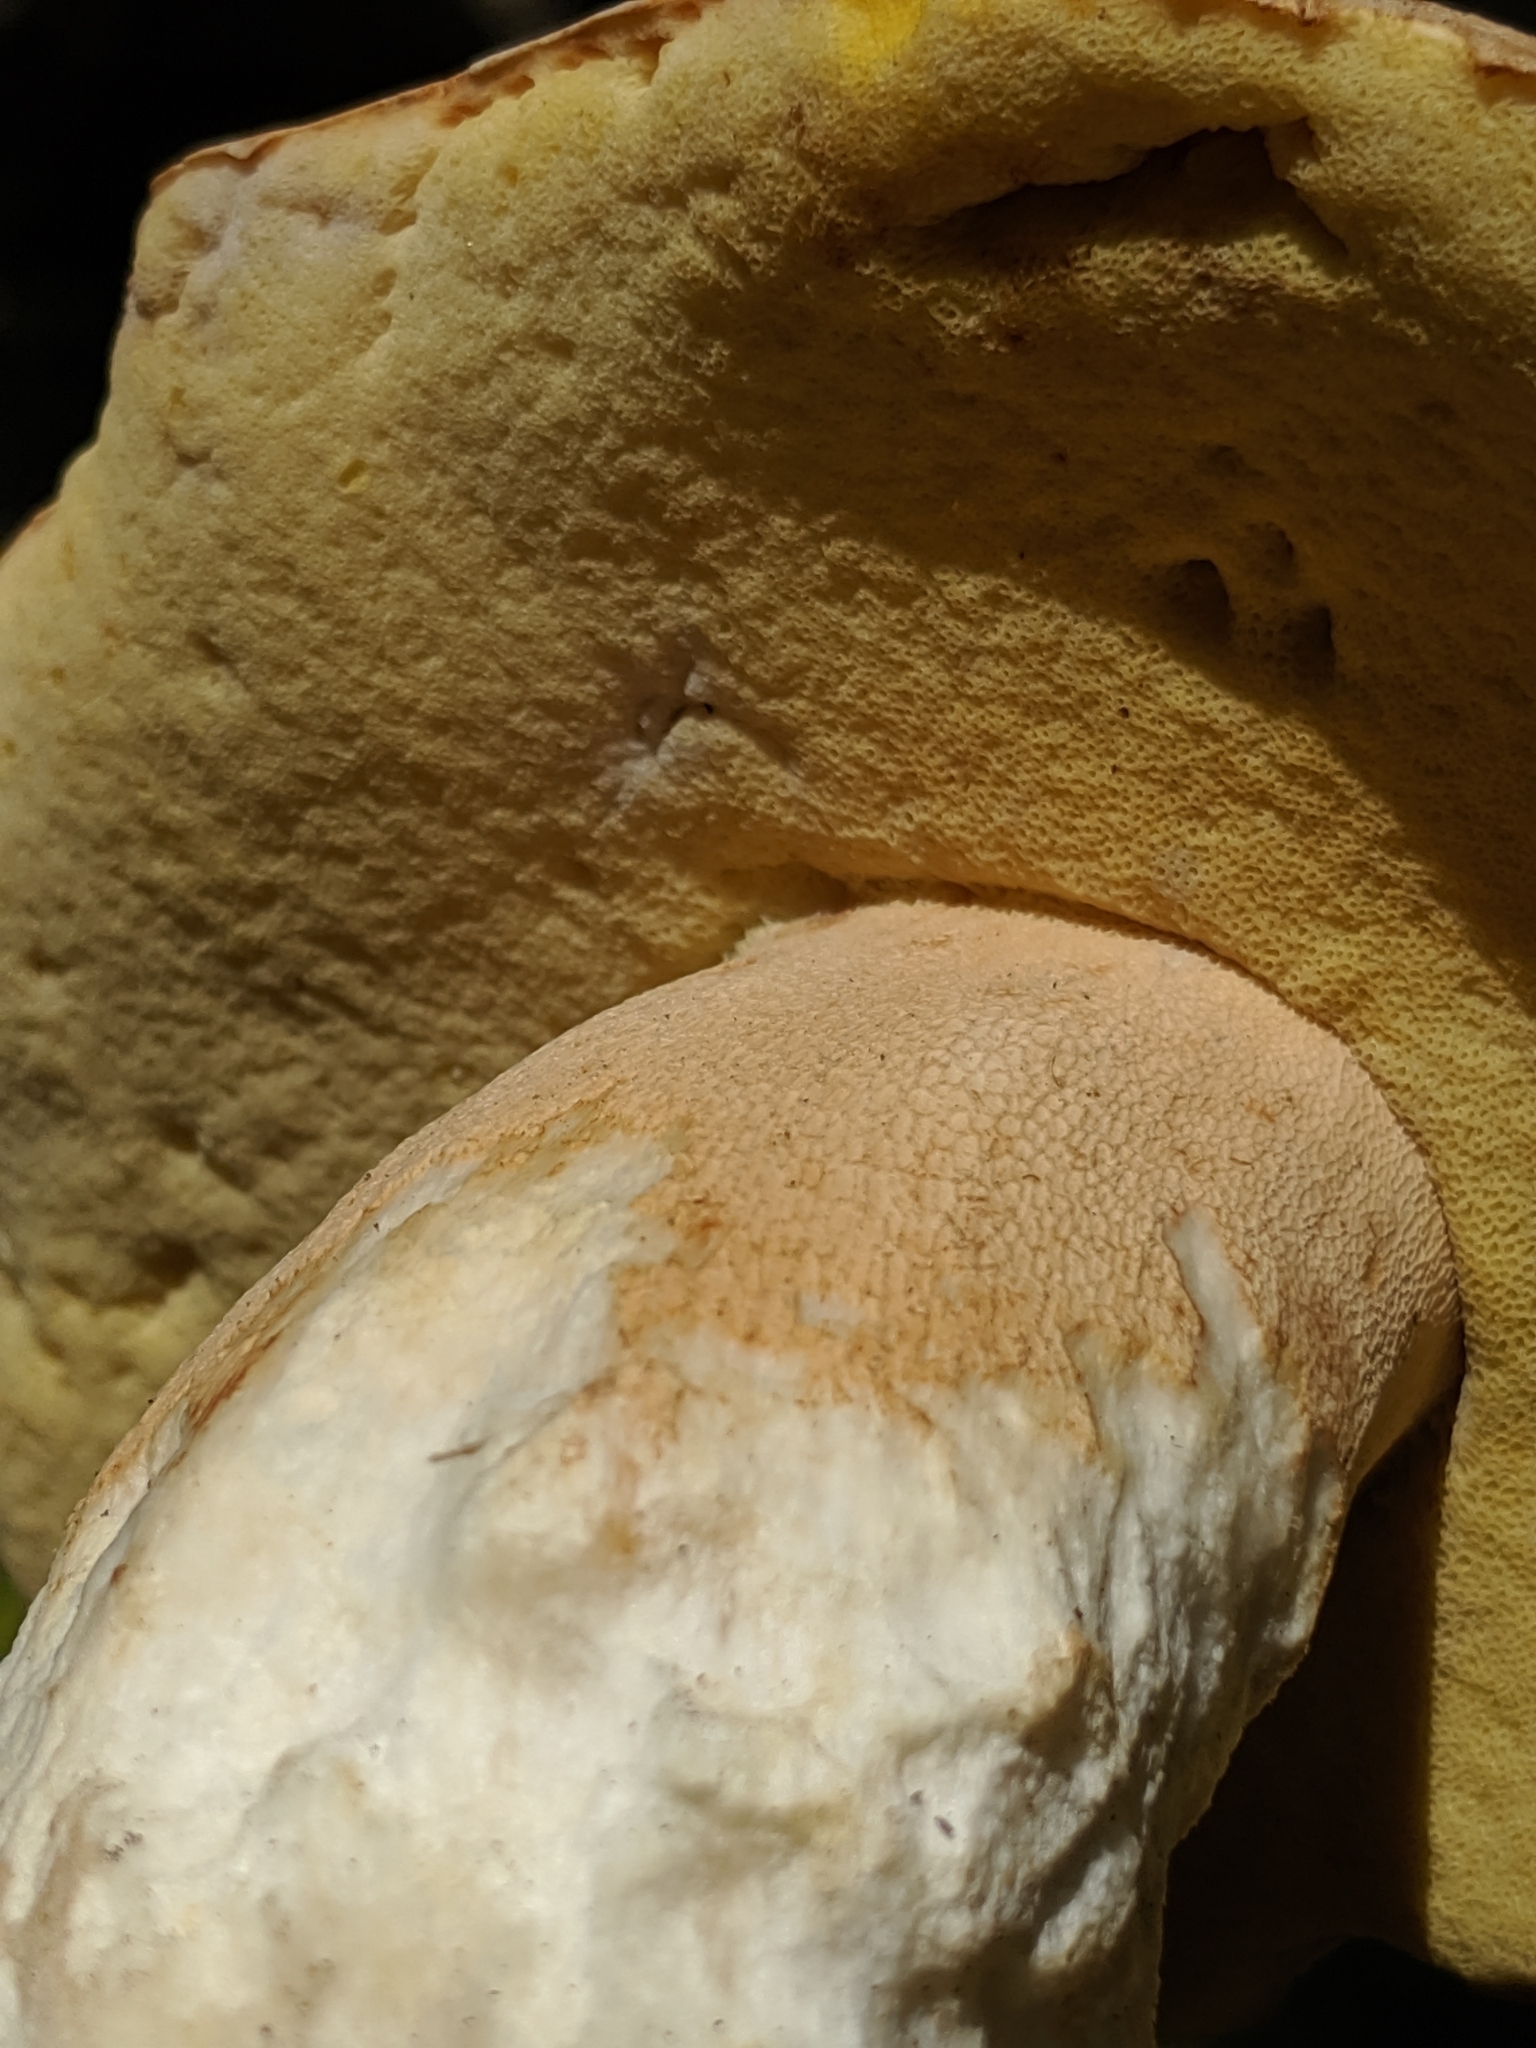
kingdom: Fungi
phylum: Basidiomycota
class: Agaricomycetes
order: Boletales
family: Boletaceae
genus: Boletus
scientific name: Boletus barrowsii
